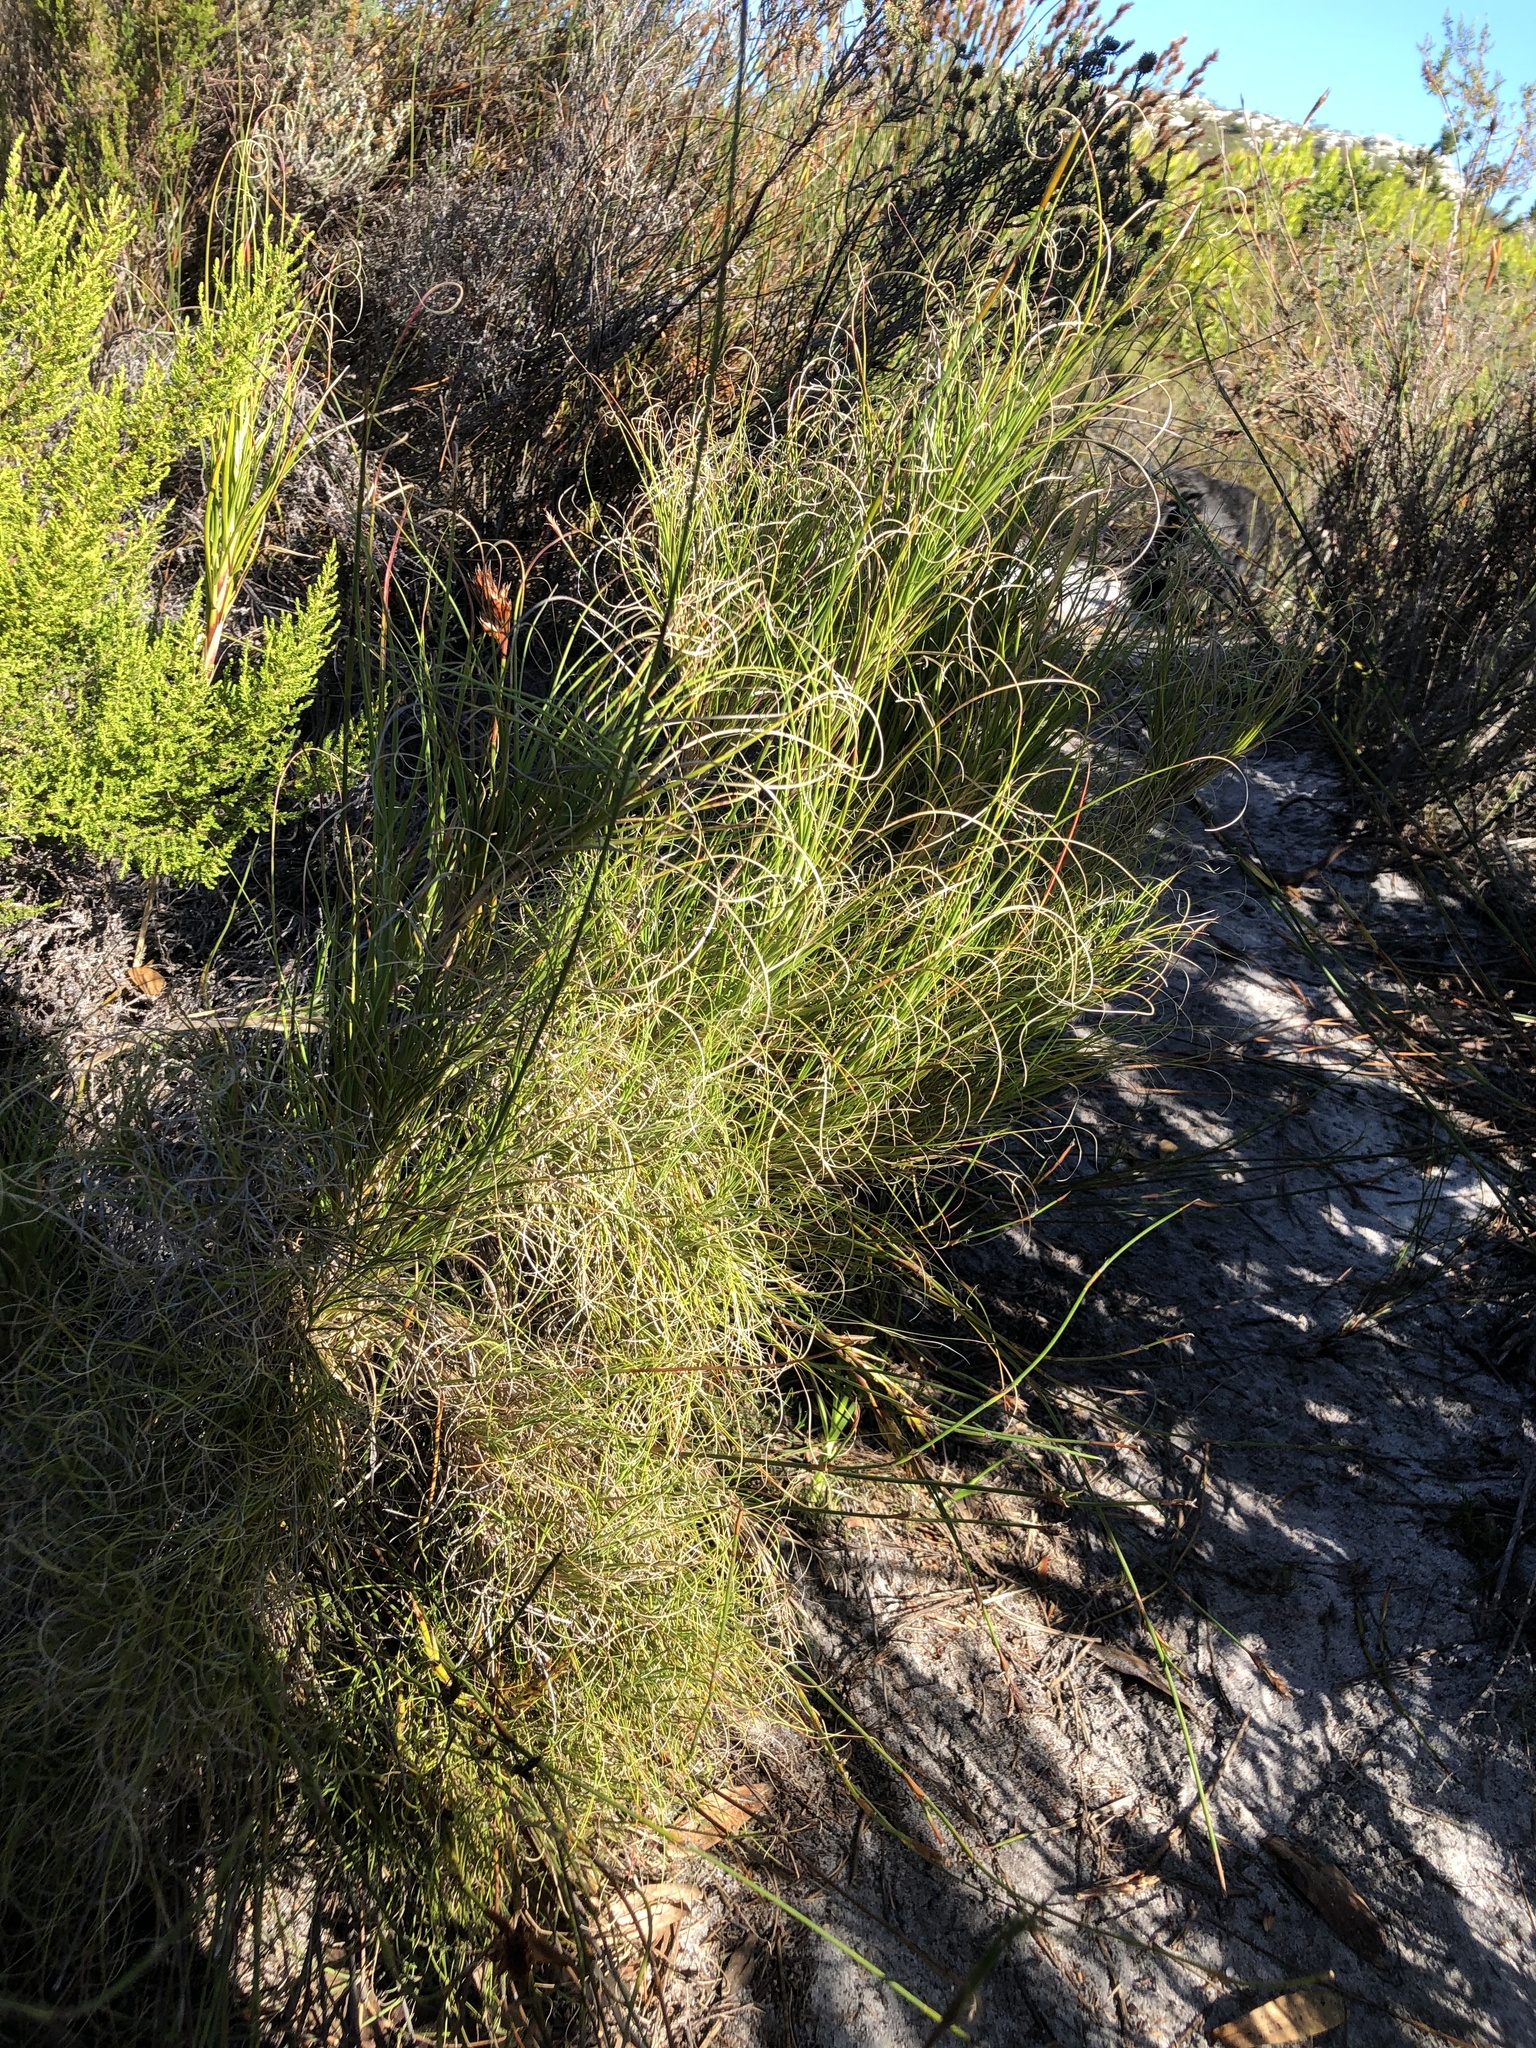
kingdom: Plantae
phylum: Tracheophyta
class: Liliopsida
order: Poales
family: Poaceae
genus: Pseudopentameris
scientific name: Pseudopentameris macrantha
